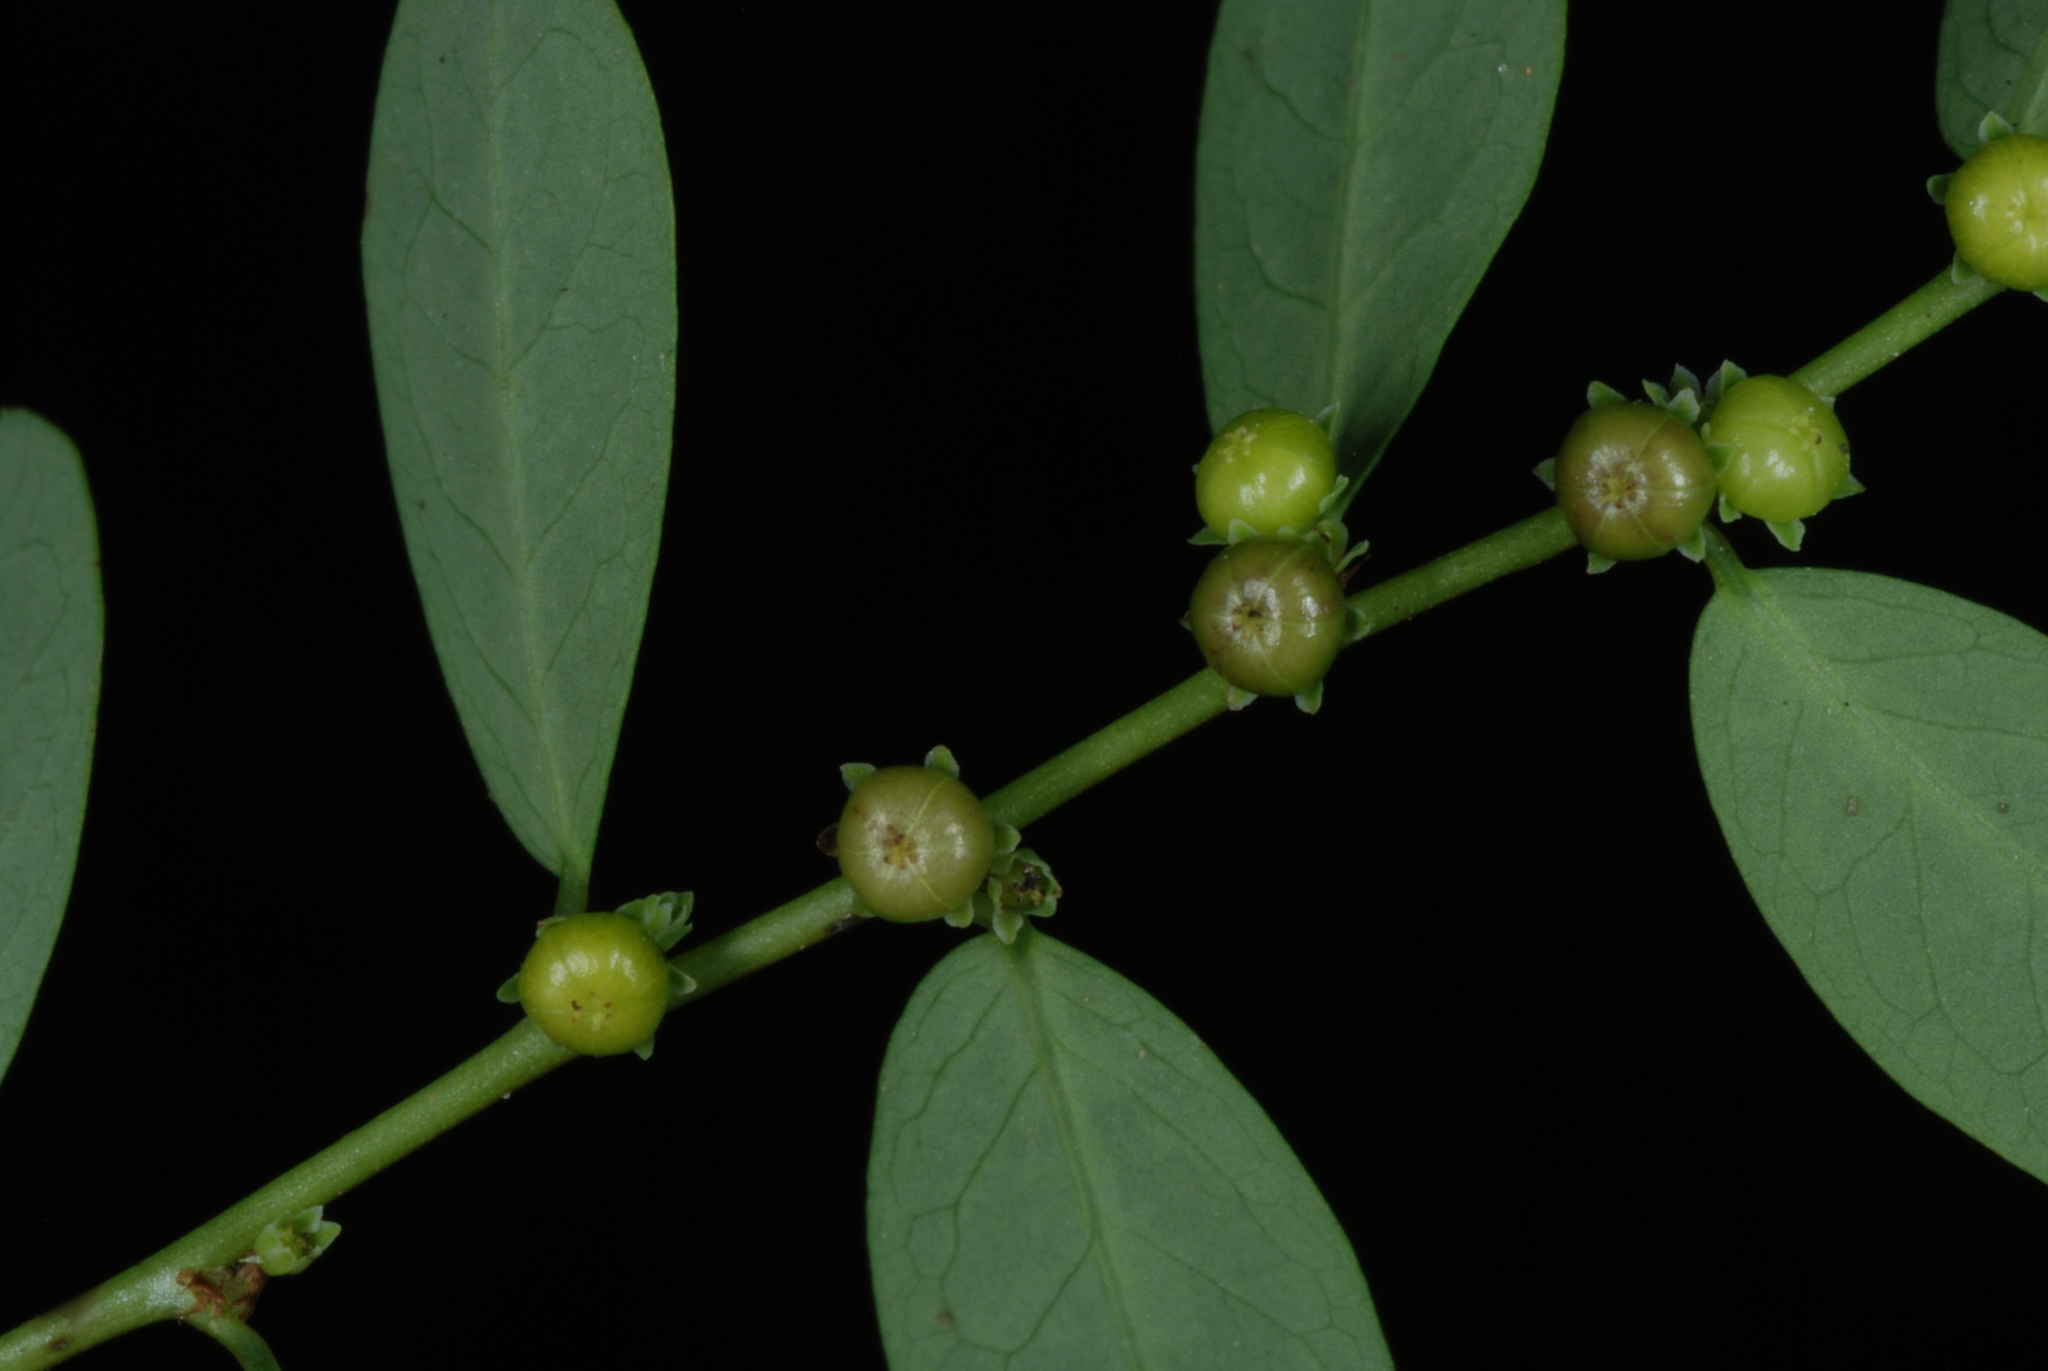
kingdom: Plantae
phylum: Tracheophyta
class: Magnoliopsida
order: Malpighiales
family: Phyllanthaceae
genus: Phyllanthus
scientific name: Phyllanthus caroliniensis
